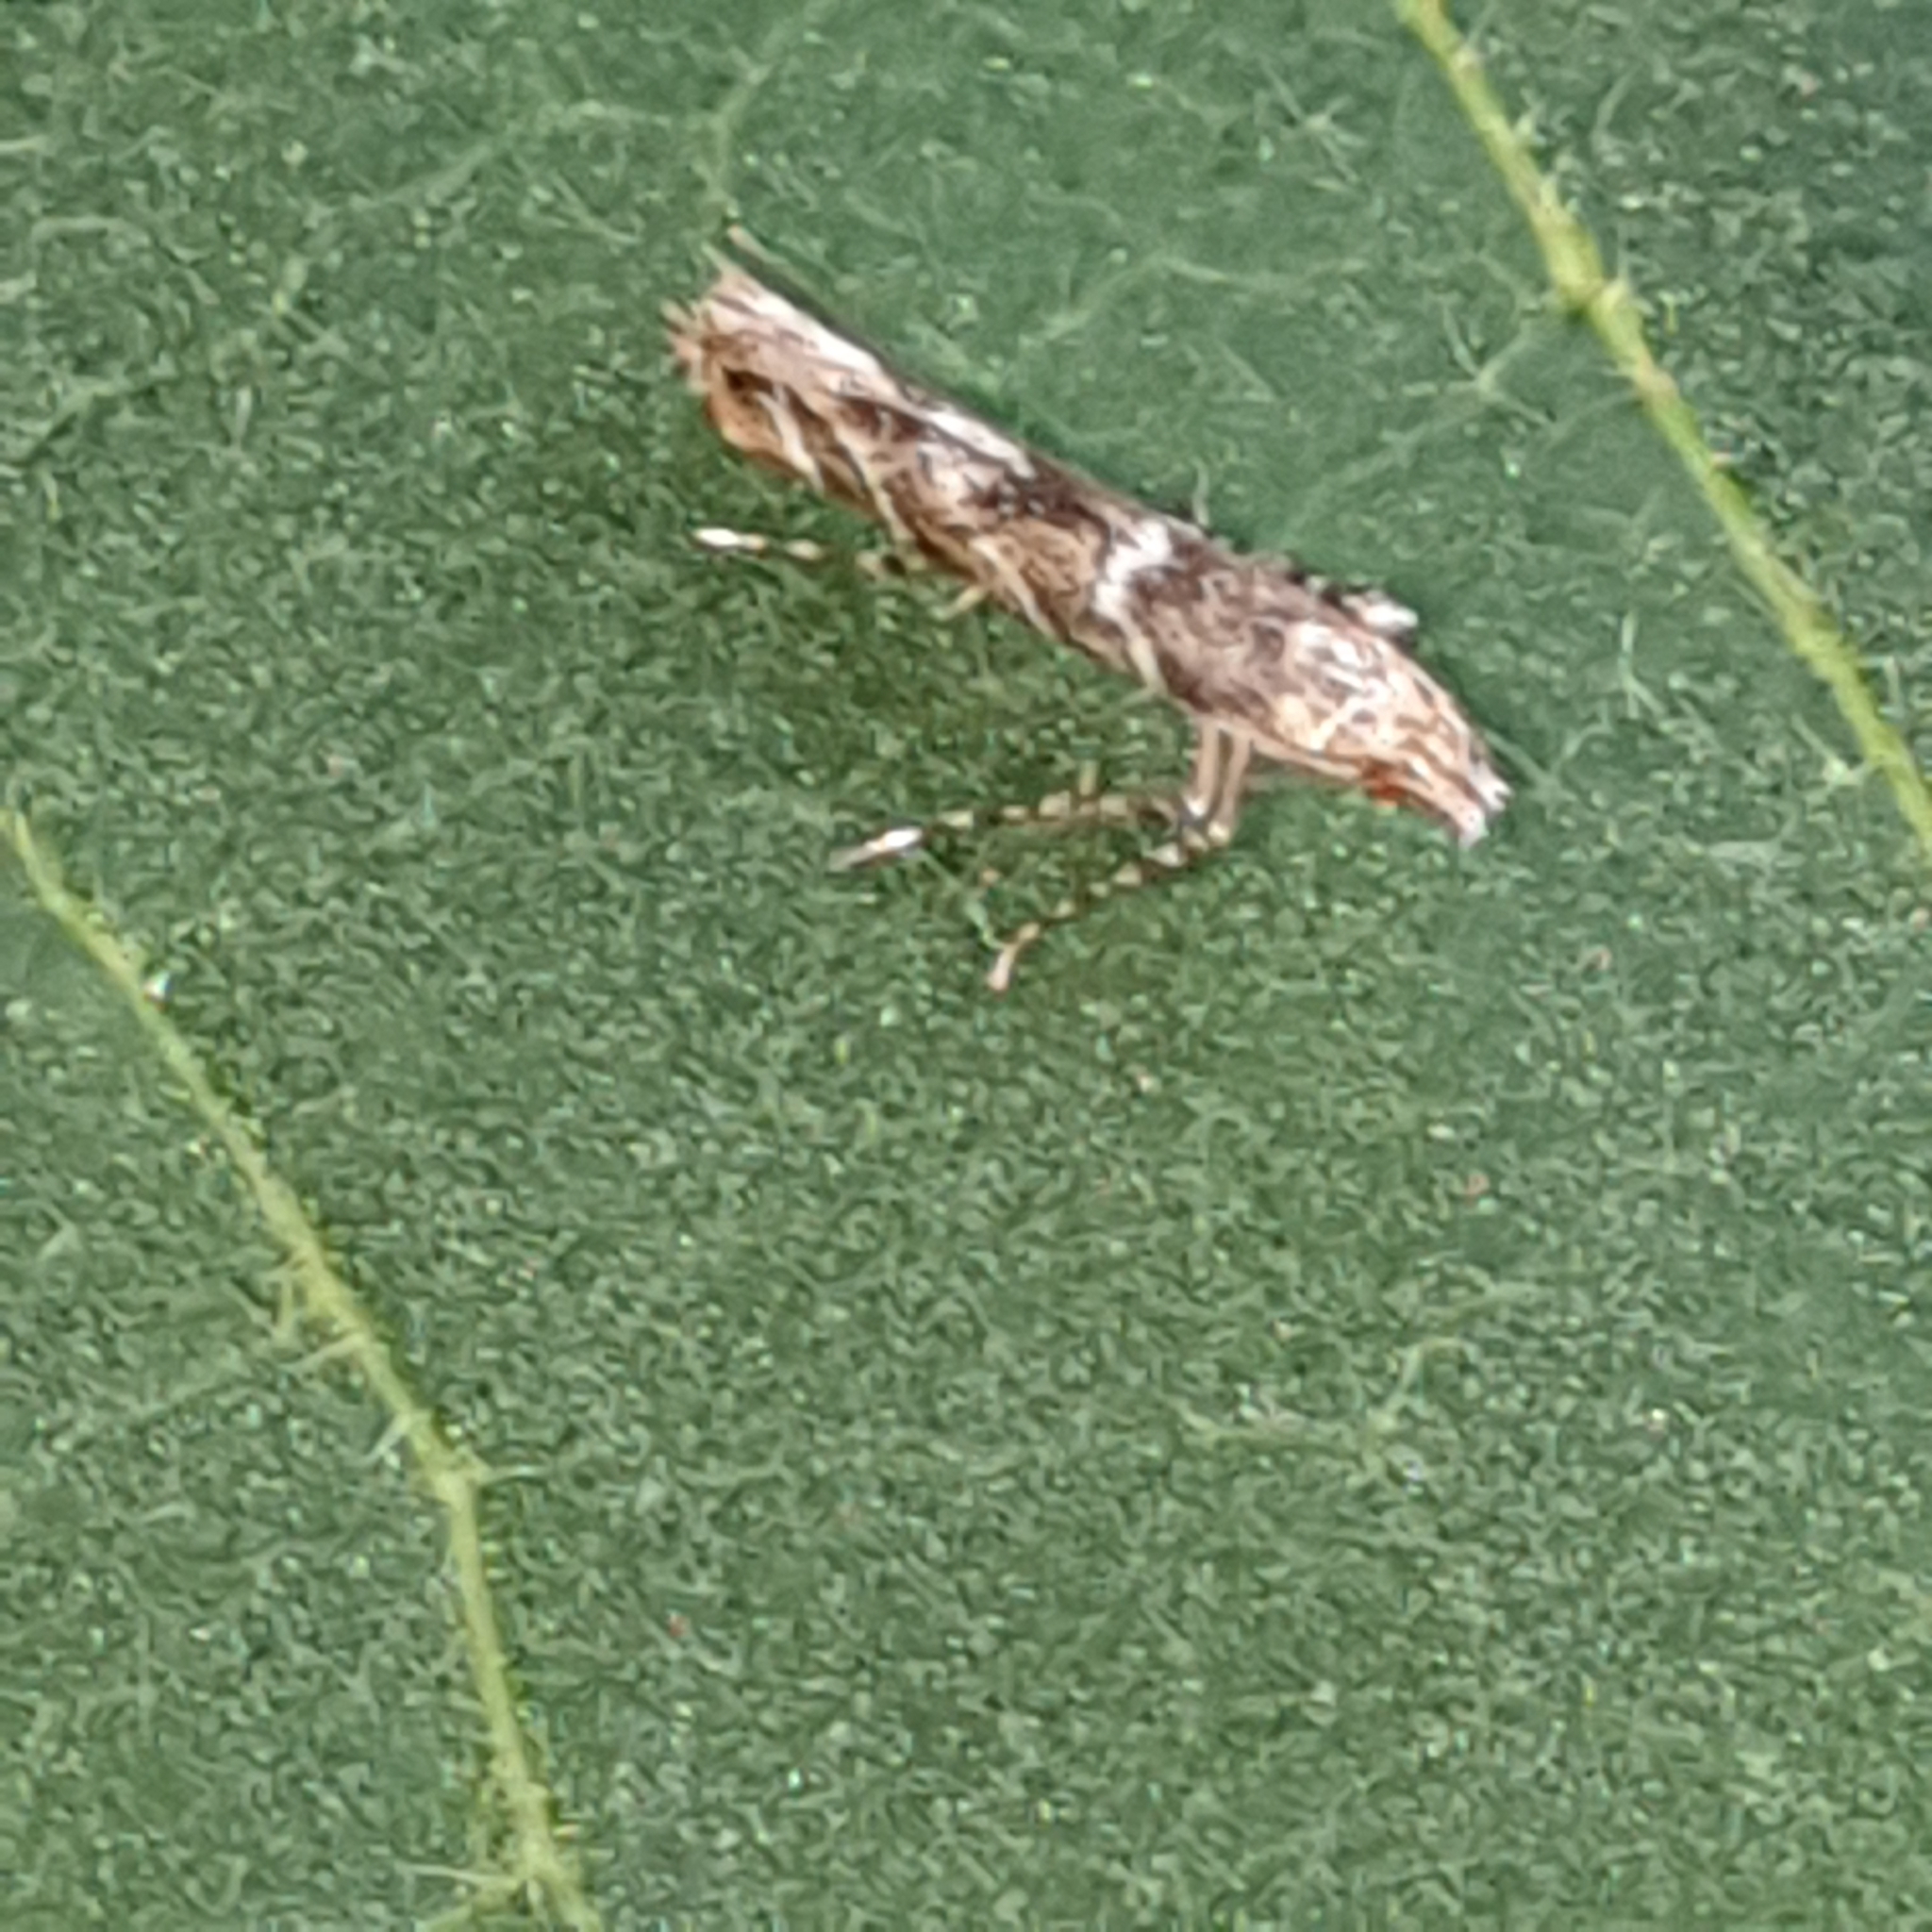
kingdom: Animalia
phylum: Arthropoda
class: Insecta
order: Lepidoptera
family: Gracillariidae
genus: Acrocercops
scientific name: Acrocercops brongniardella
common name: Brown oak slender
